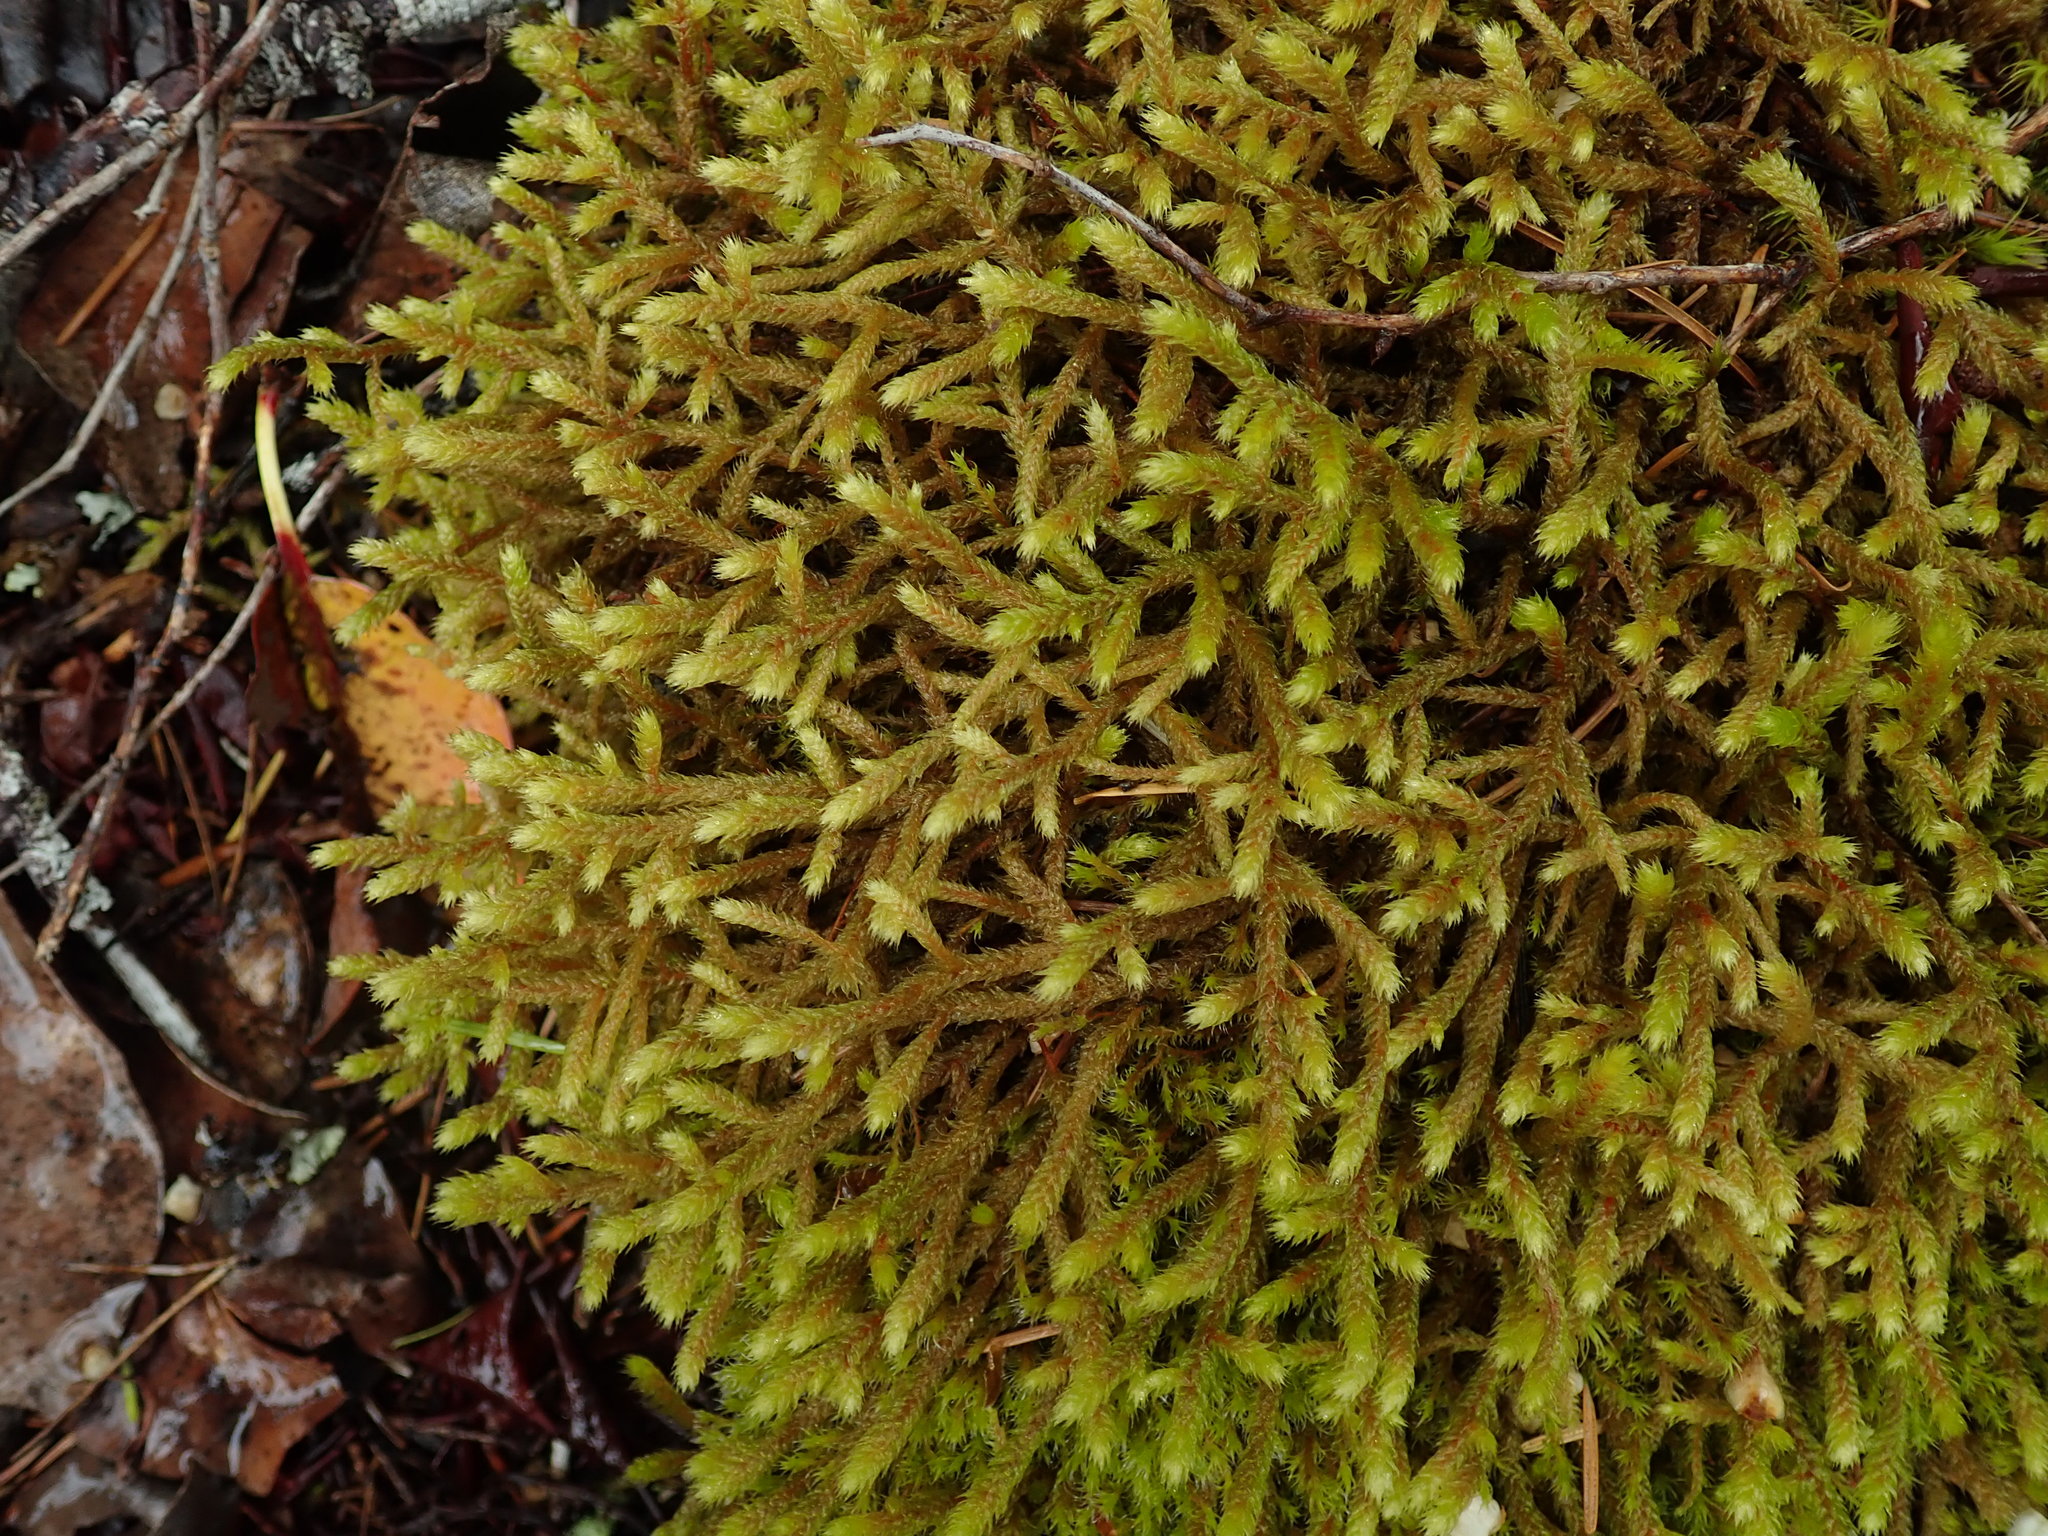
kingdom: Plantae
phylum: Bryophyta
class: Bryopsida
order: Hypnales
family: Antitrichiaceae
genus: Antitrichia
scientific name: Antitrichia curtipendula
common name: Pendulous wing-moss
